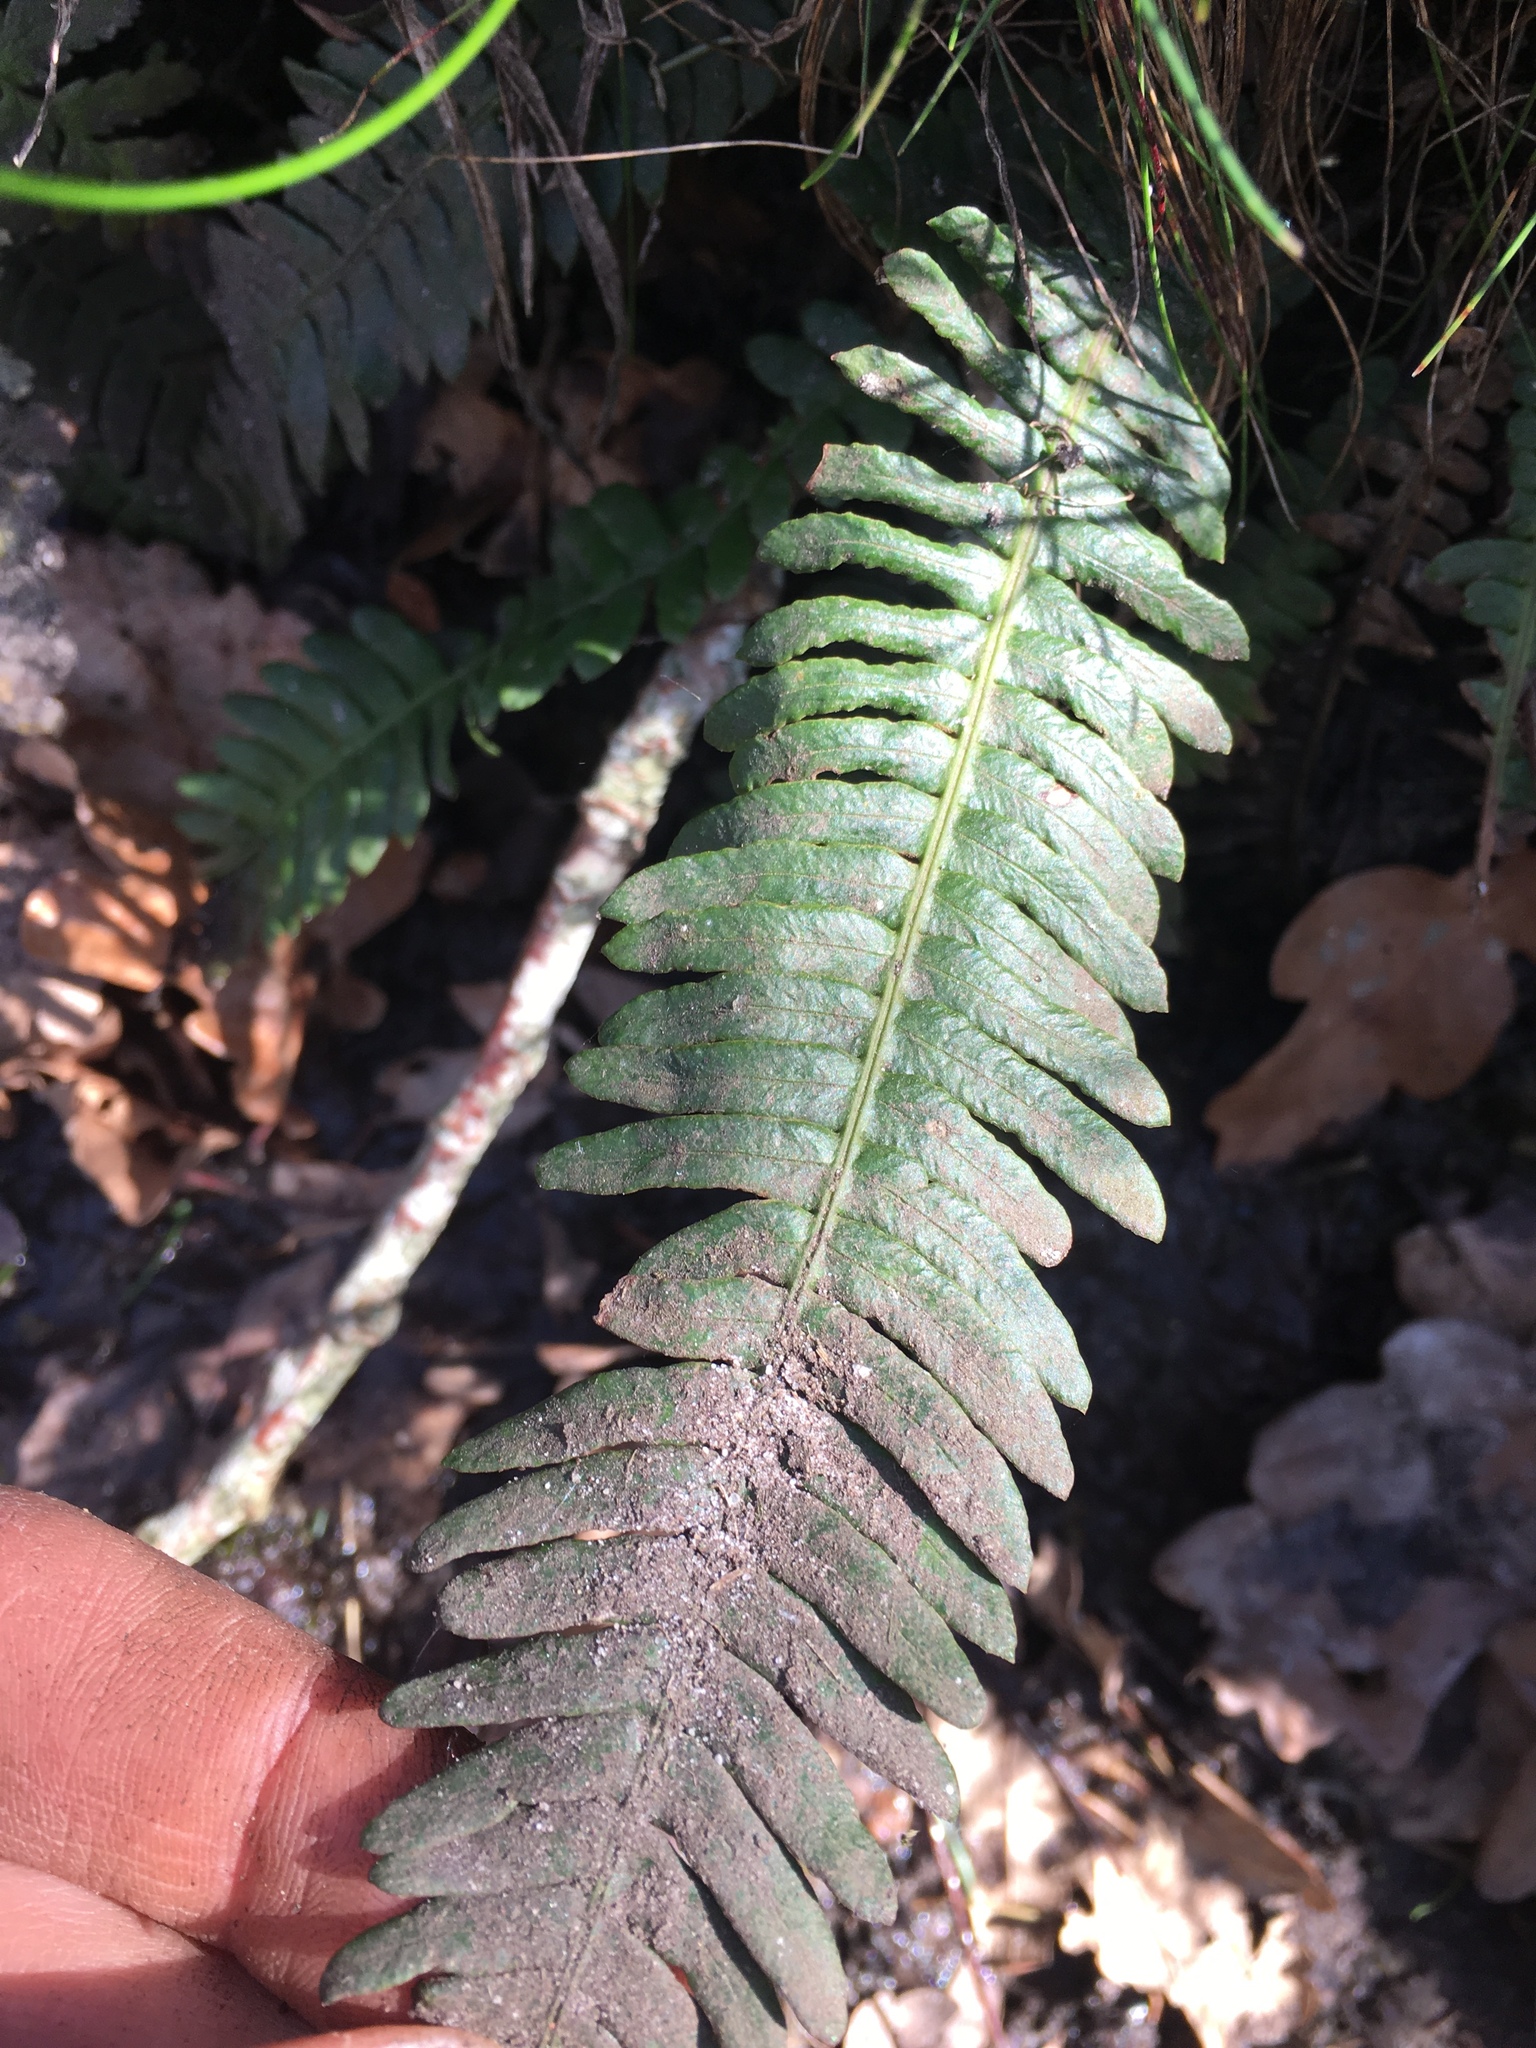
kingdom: Plantae
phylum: Tracheophyta
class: Polypodiopsida
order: Polypodiales
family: Blechnaceae
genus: Struthiopteris
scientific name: Struthiopteris spicant
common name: Deer fern
